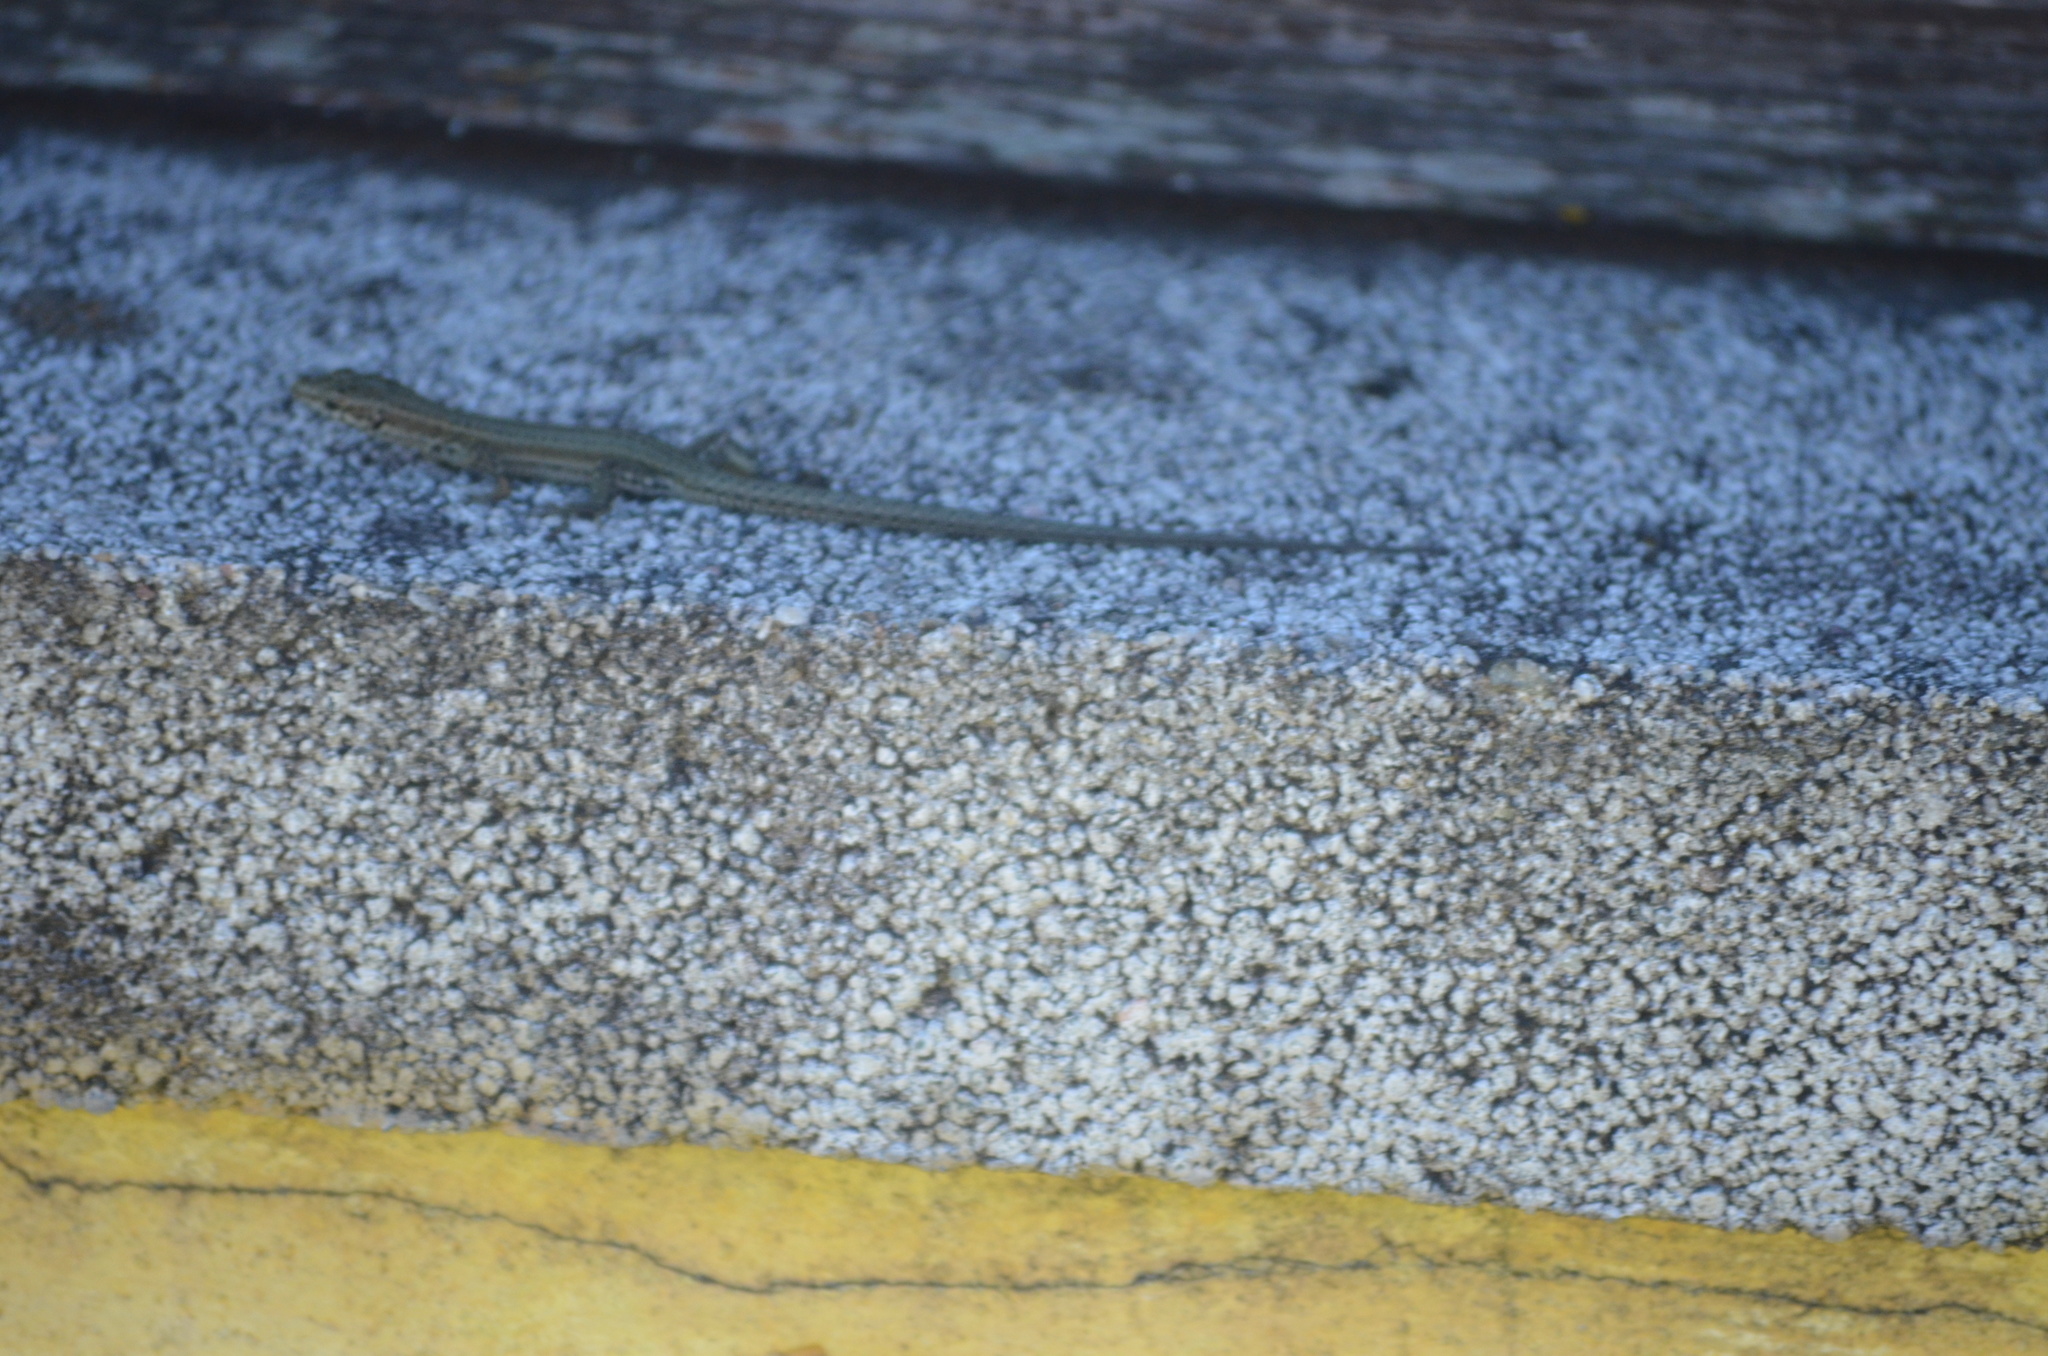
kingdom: Animalia
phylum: Chordata
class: Squamata
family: Lacertidae
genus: Podarcis
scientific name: Podarcis liolepis
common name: Catalonian wall lizard
